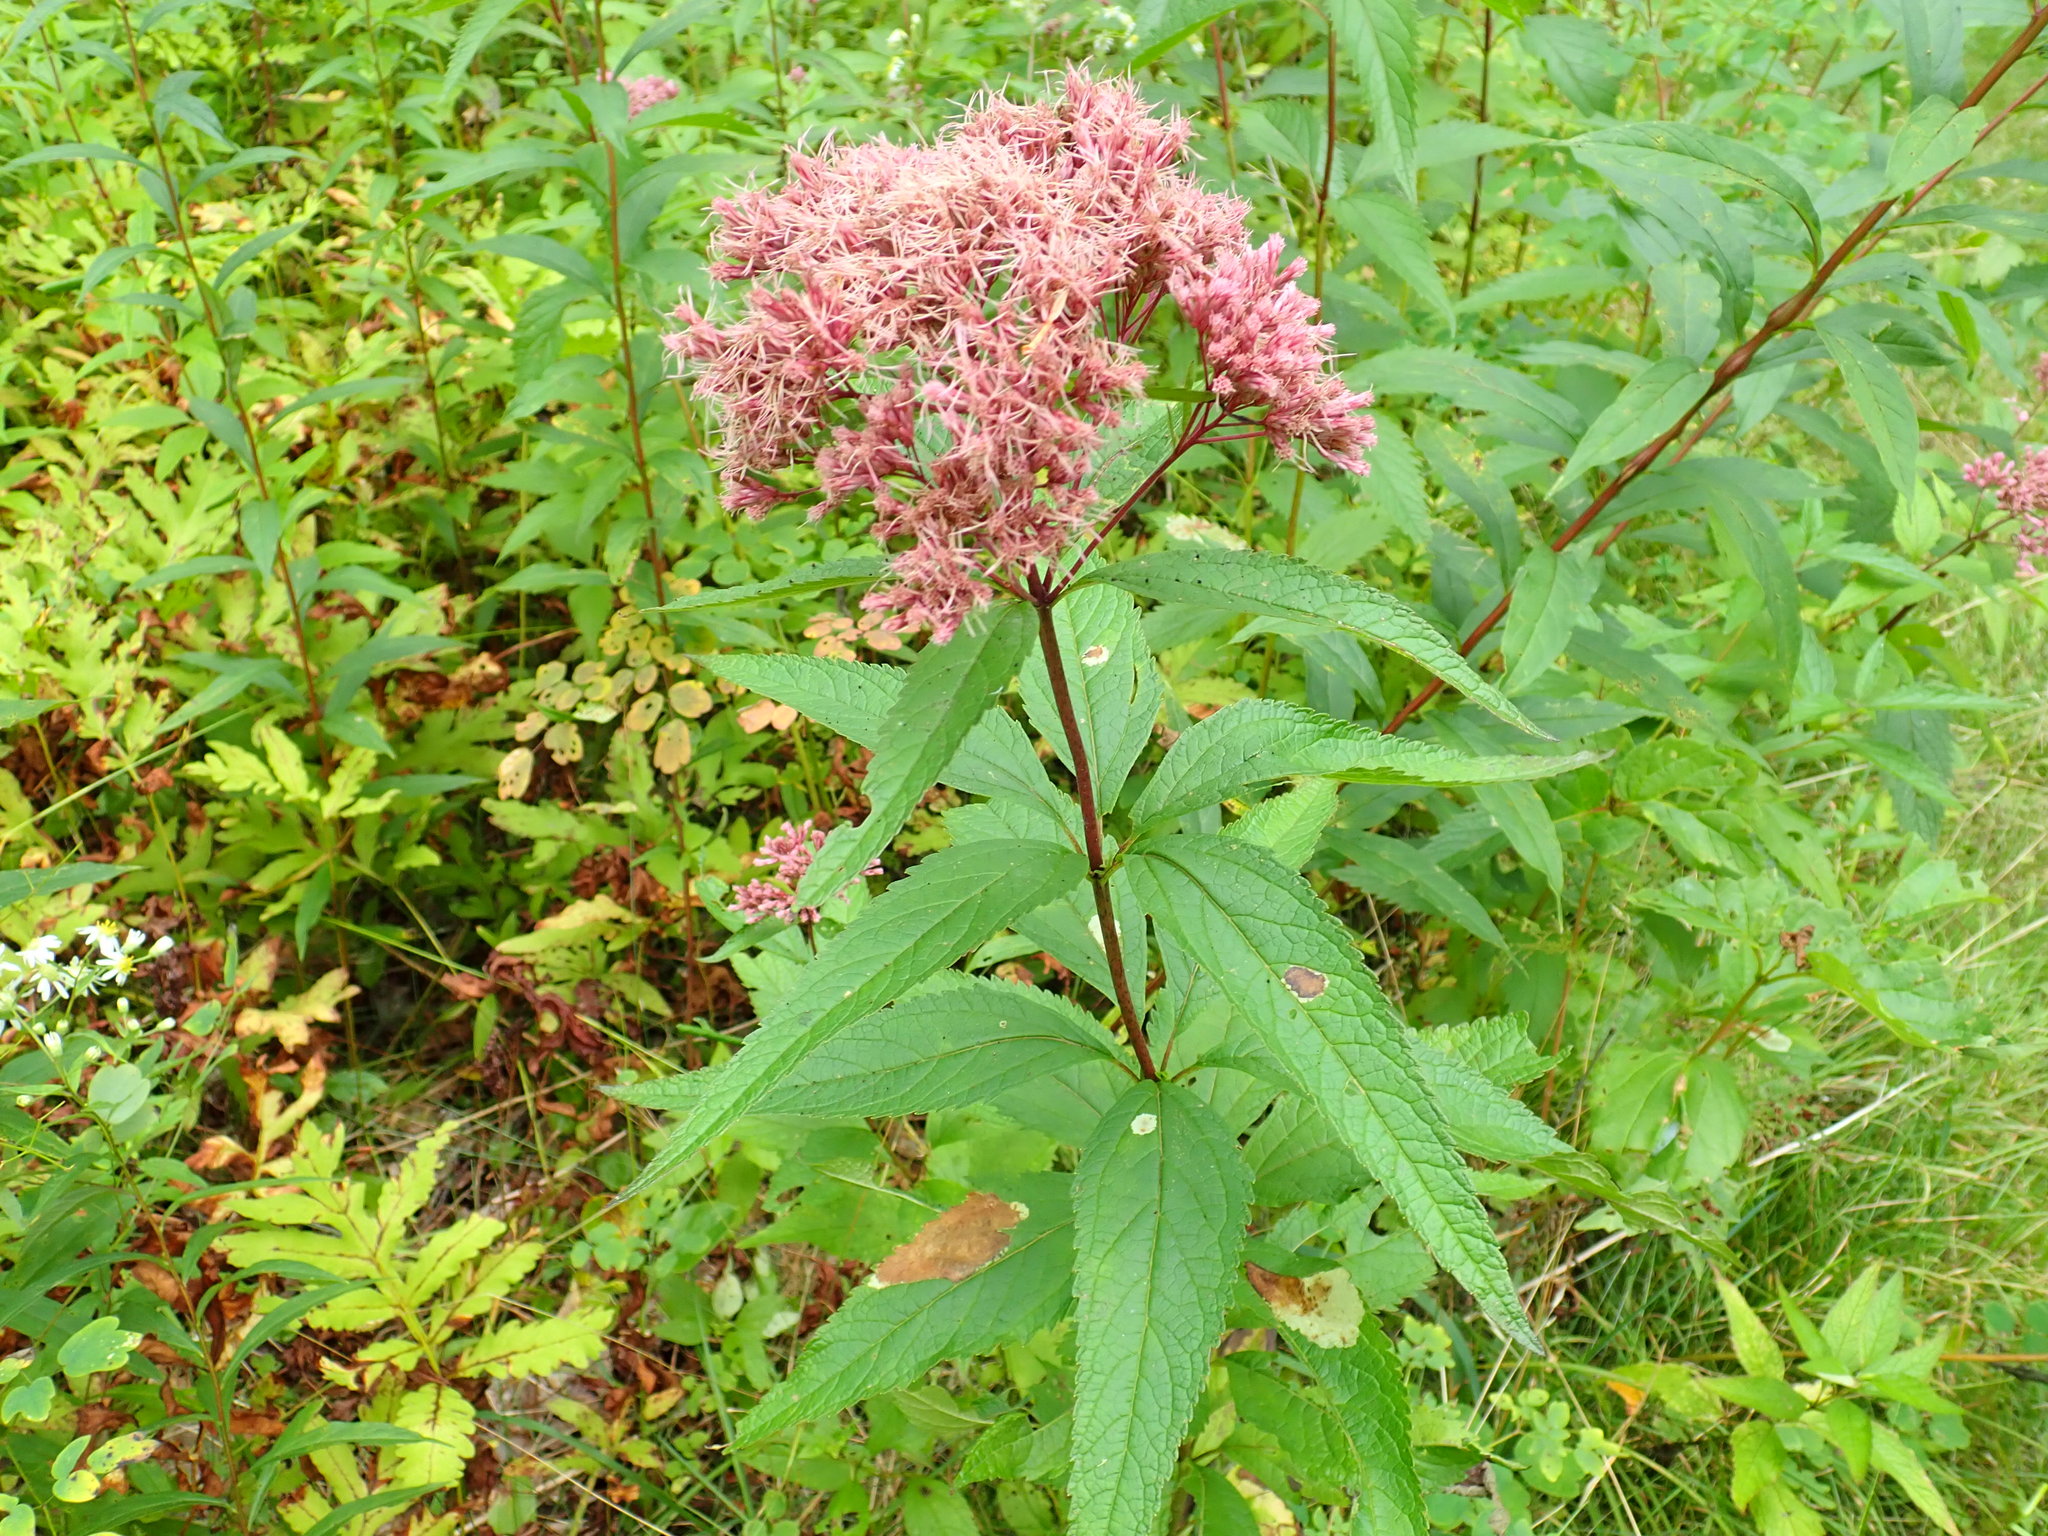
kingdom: Plantae
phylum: Tracheophyta
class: Magnoliopsida
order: Asterales
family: Asteraceae
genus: Eutrochium
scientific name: Eutrochium
